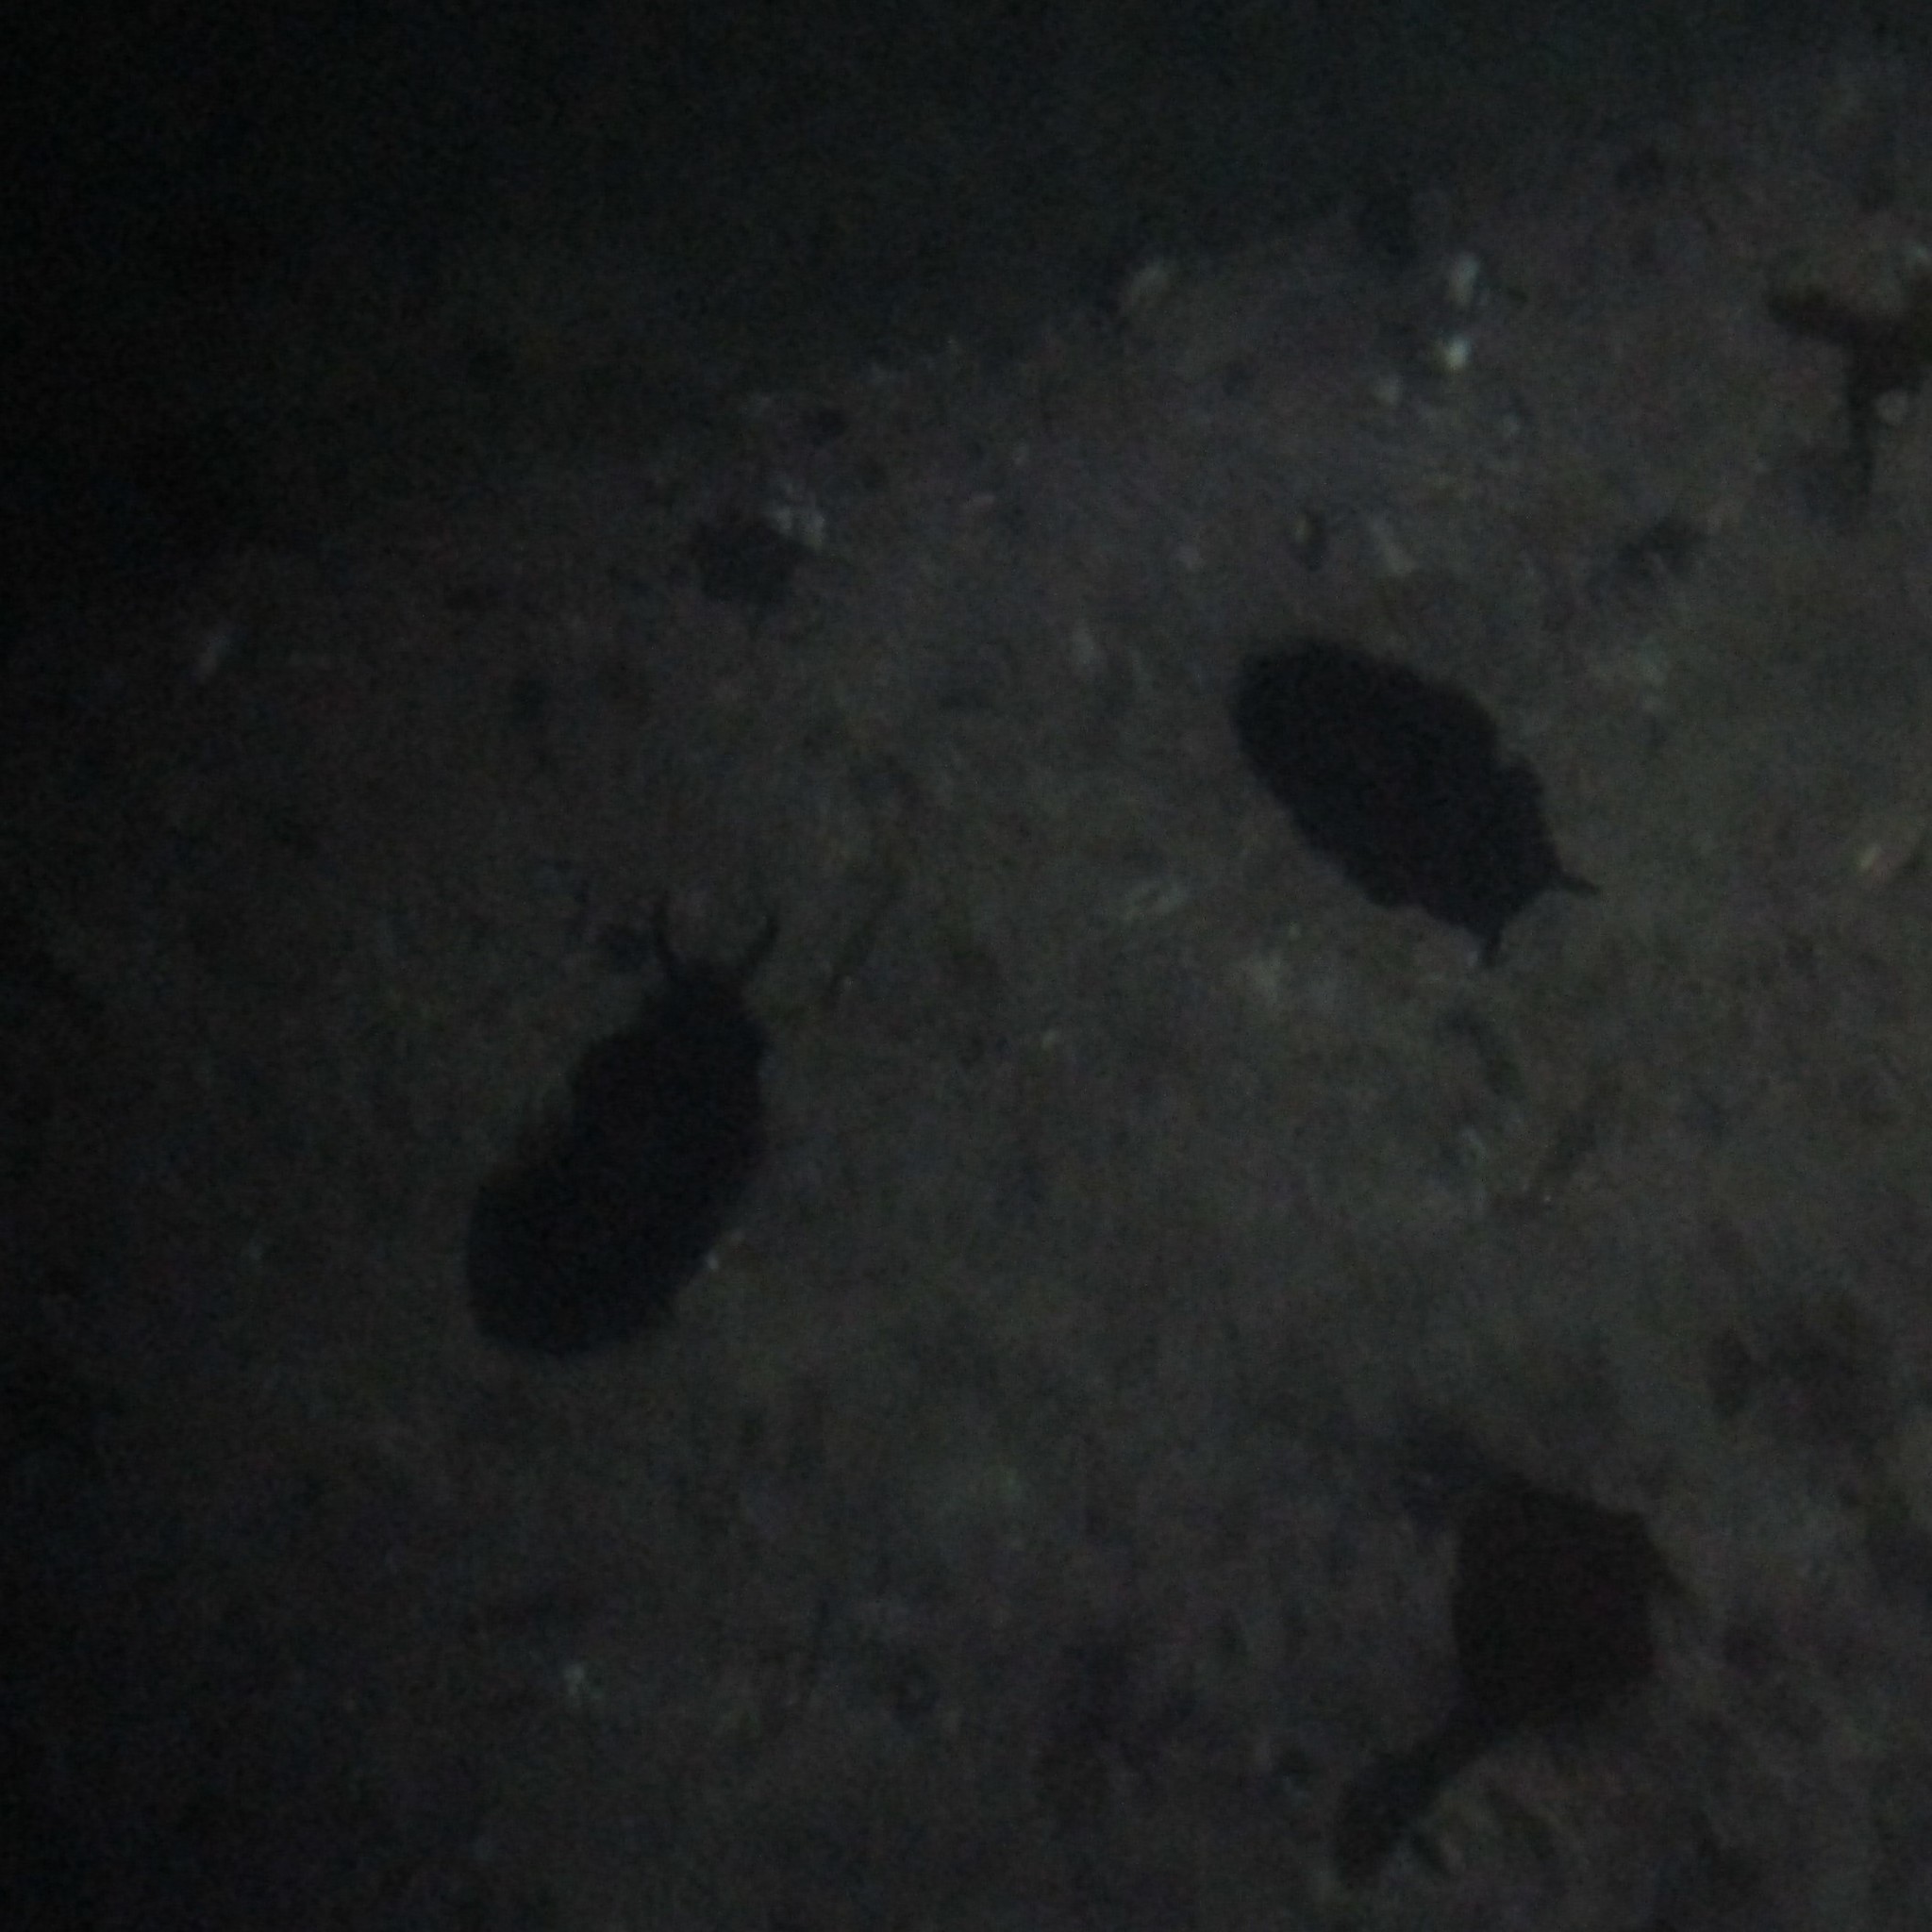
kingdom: Animalia
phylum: Mollusca
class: Gastropoda
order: Lepetellida
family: Fissurellidae
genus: Scutus
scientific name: Scutus breviculus
